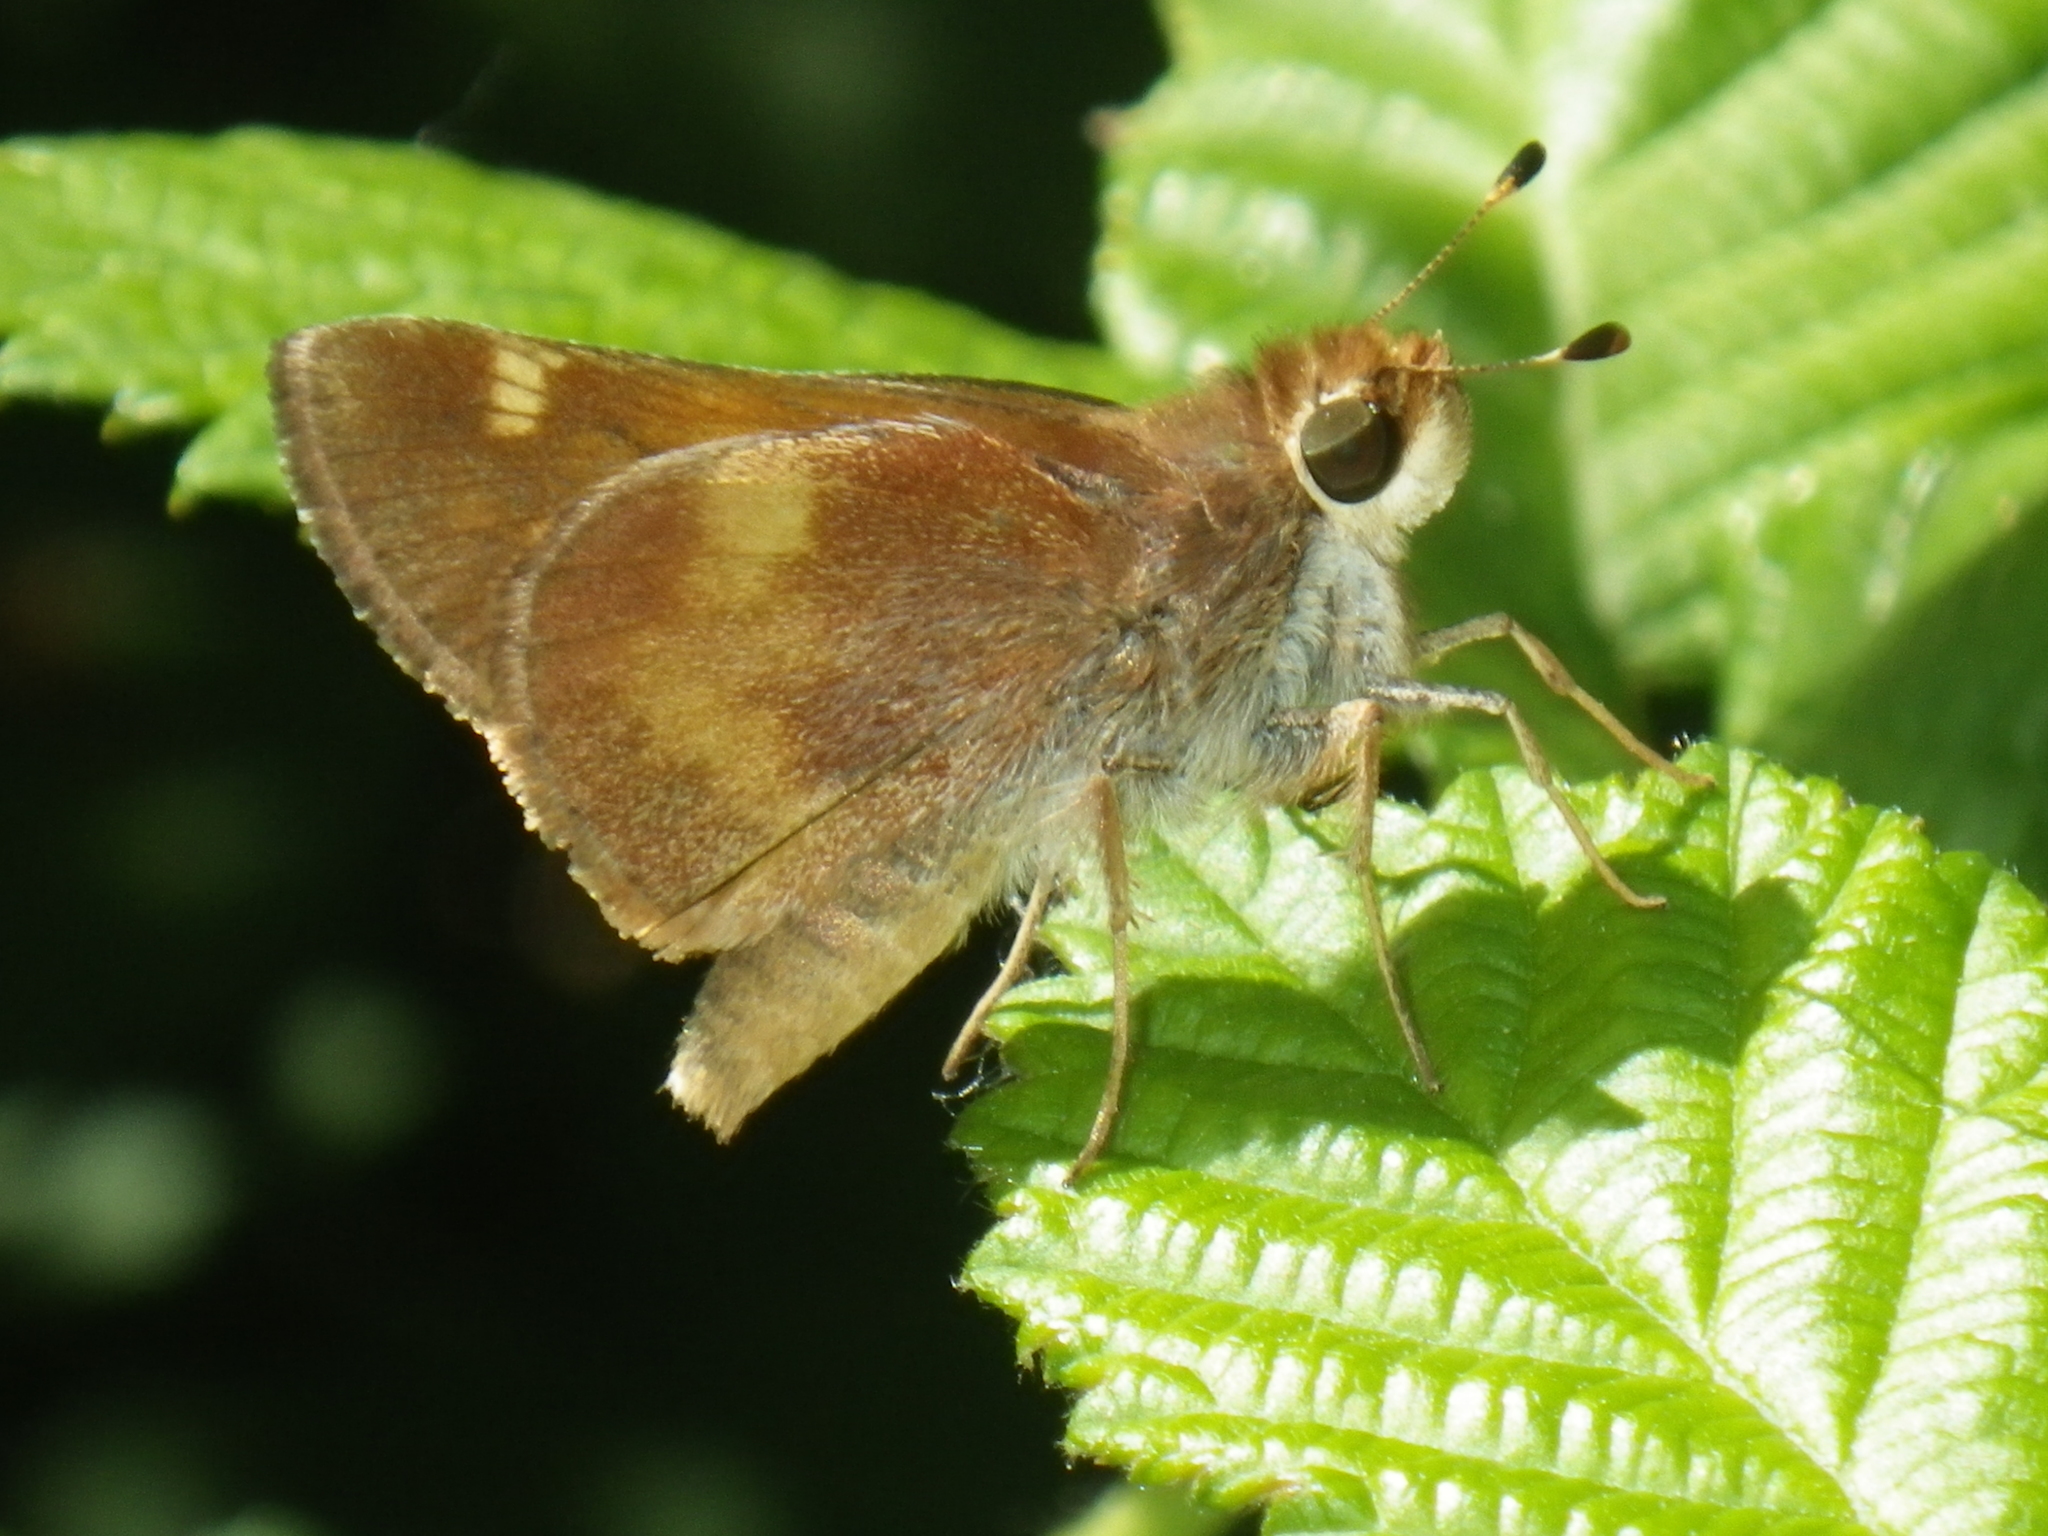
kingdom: Animalia
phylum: Arthropoda
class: Insecta
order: Lepidoptera
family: Hesperiidae
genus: Lon
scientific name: Lon melane
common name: Umber skipper
